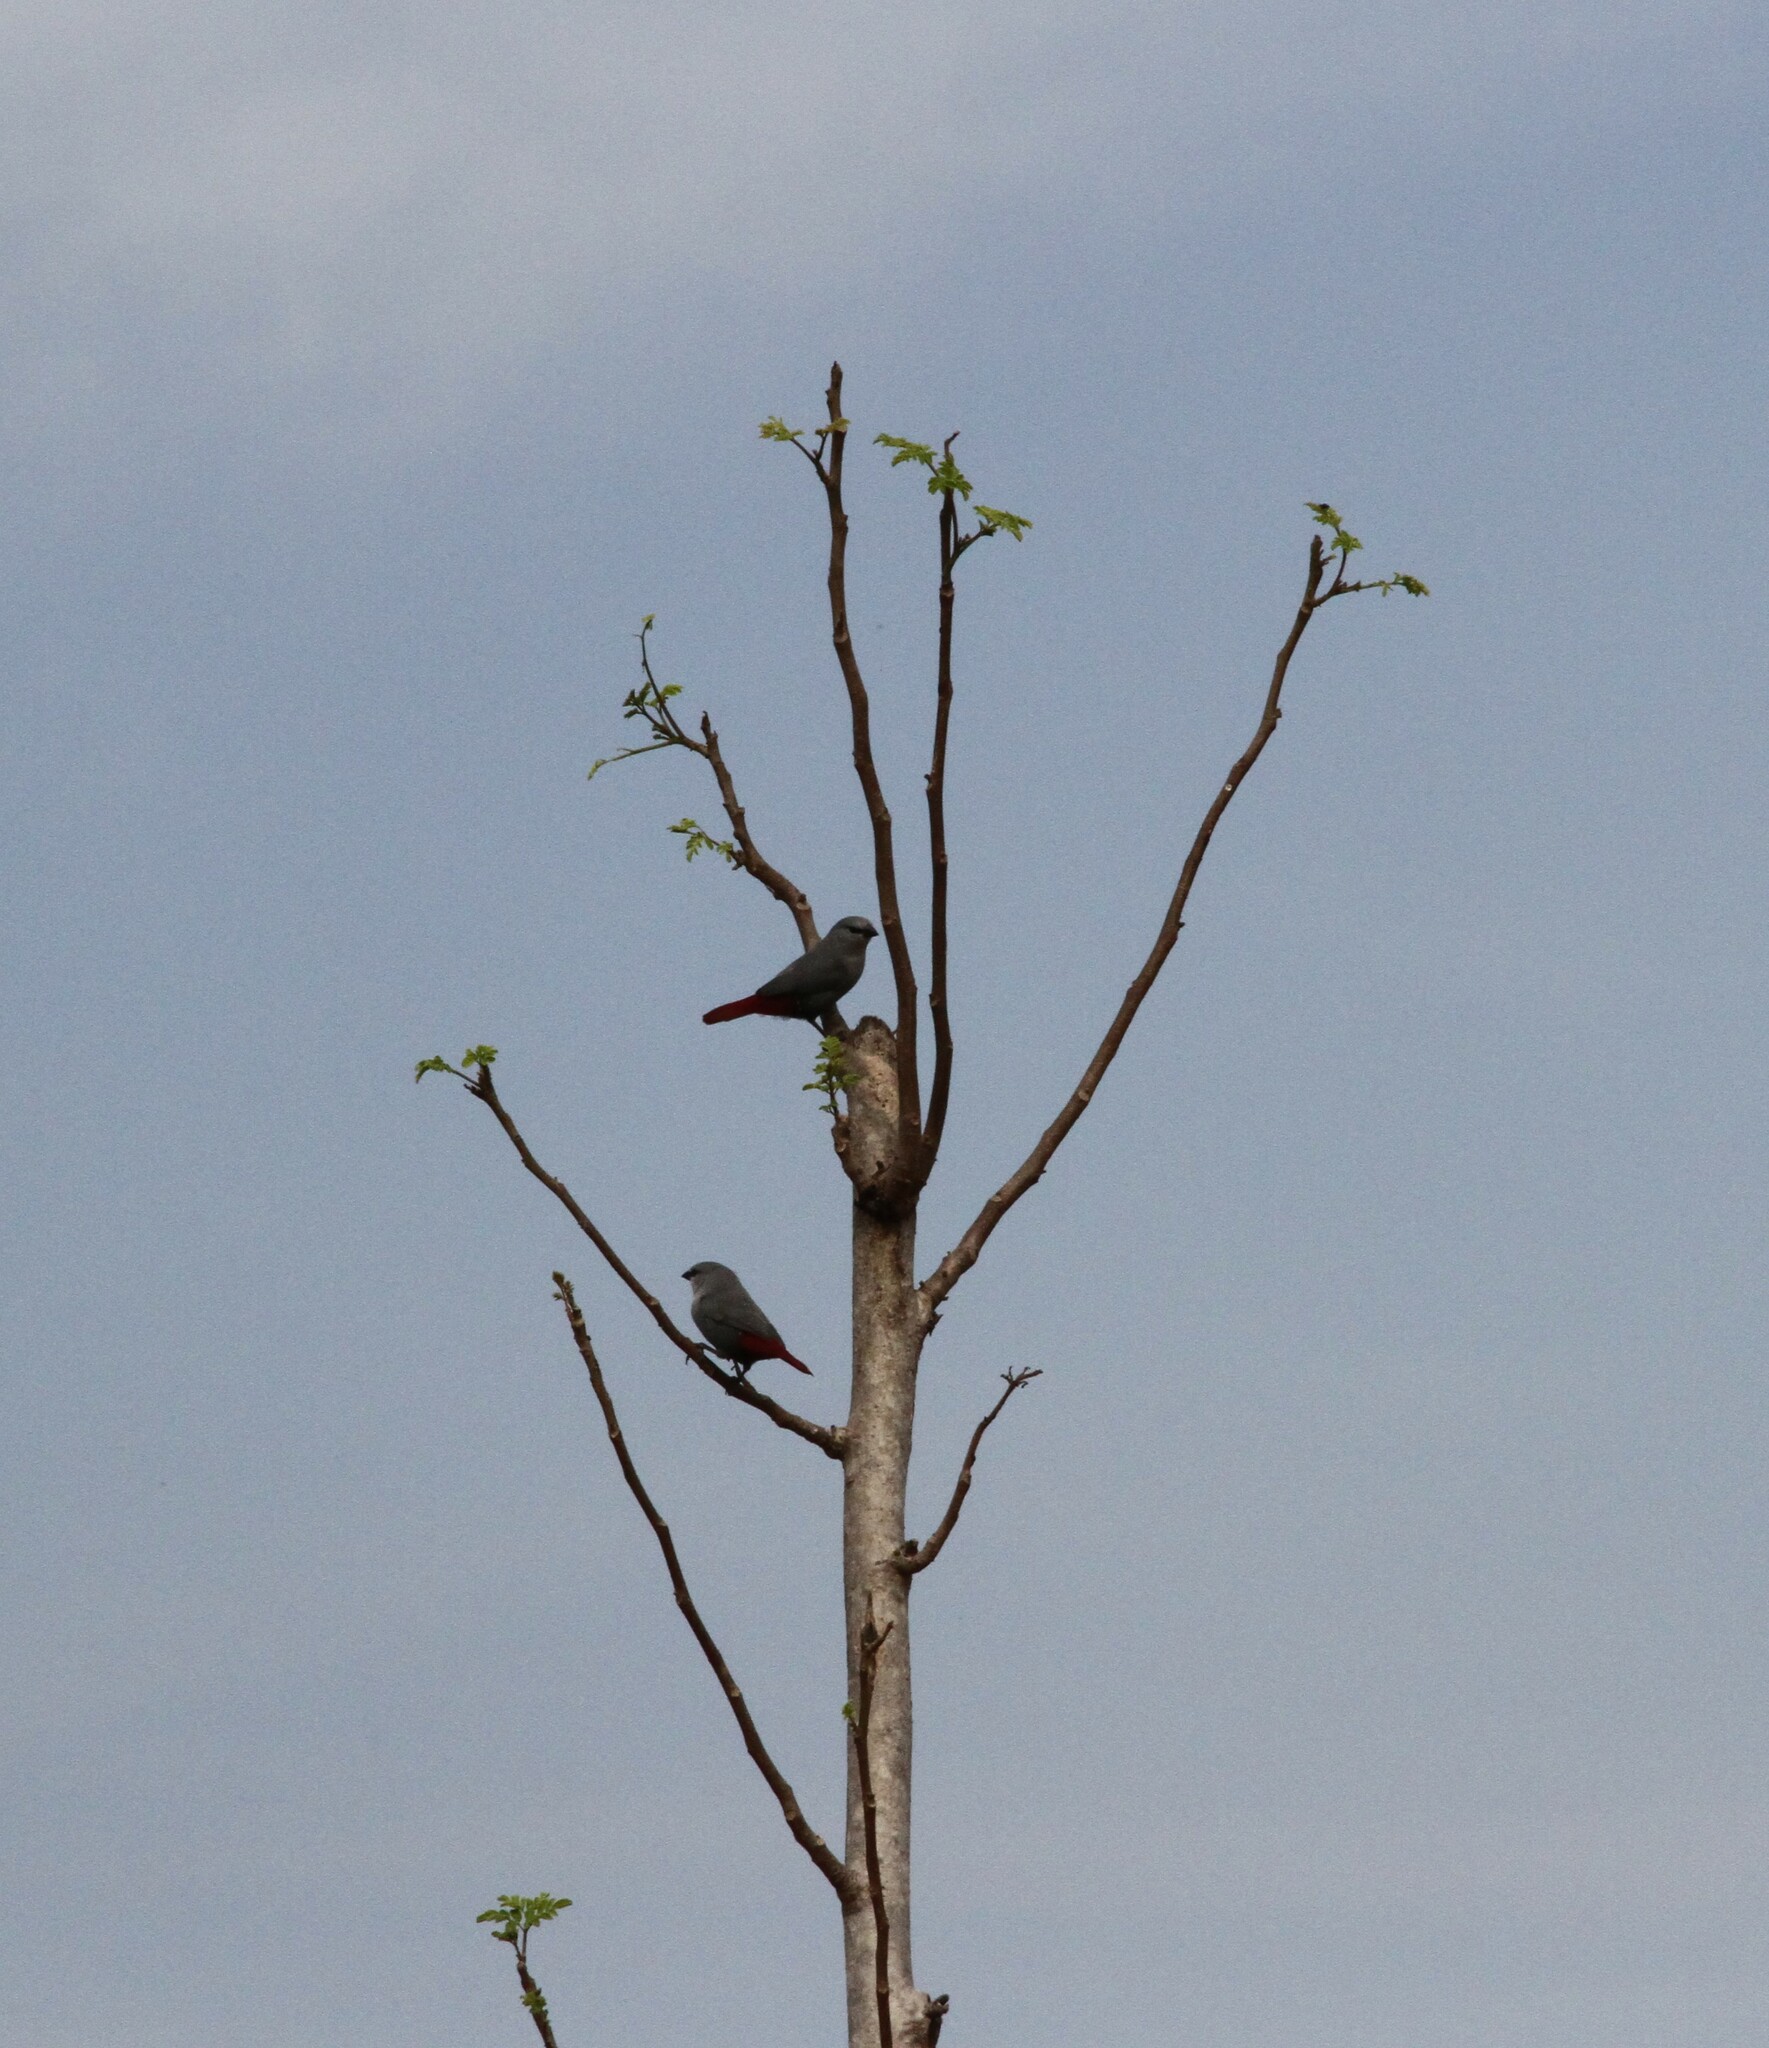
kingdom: Animalia
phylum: Chordata
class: Aves
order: Passeriformes
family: Estrildidae
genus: Estrilda
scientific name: Estrilda caerulescens
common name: Lavender waxbill
